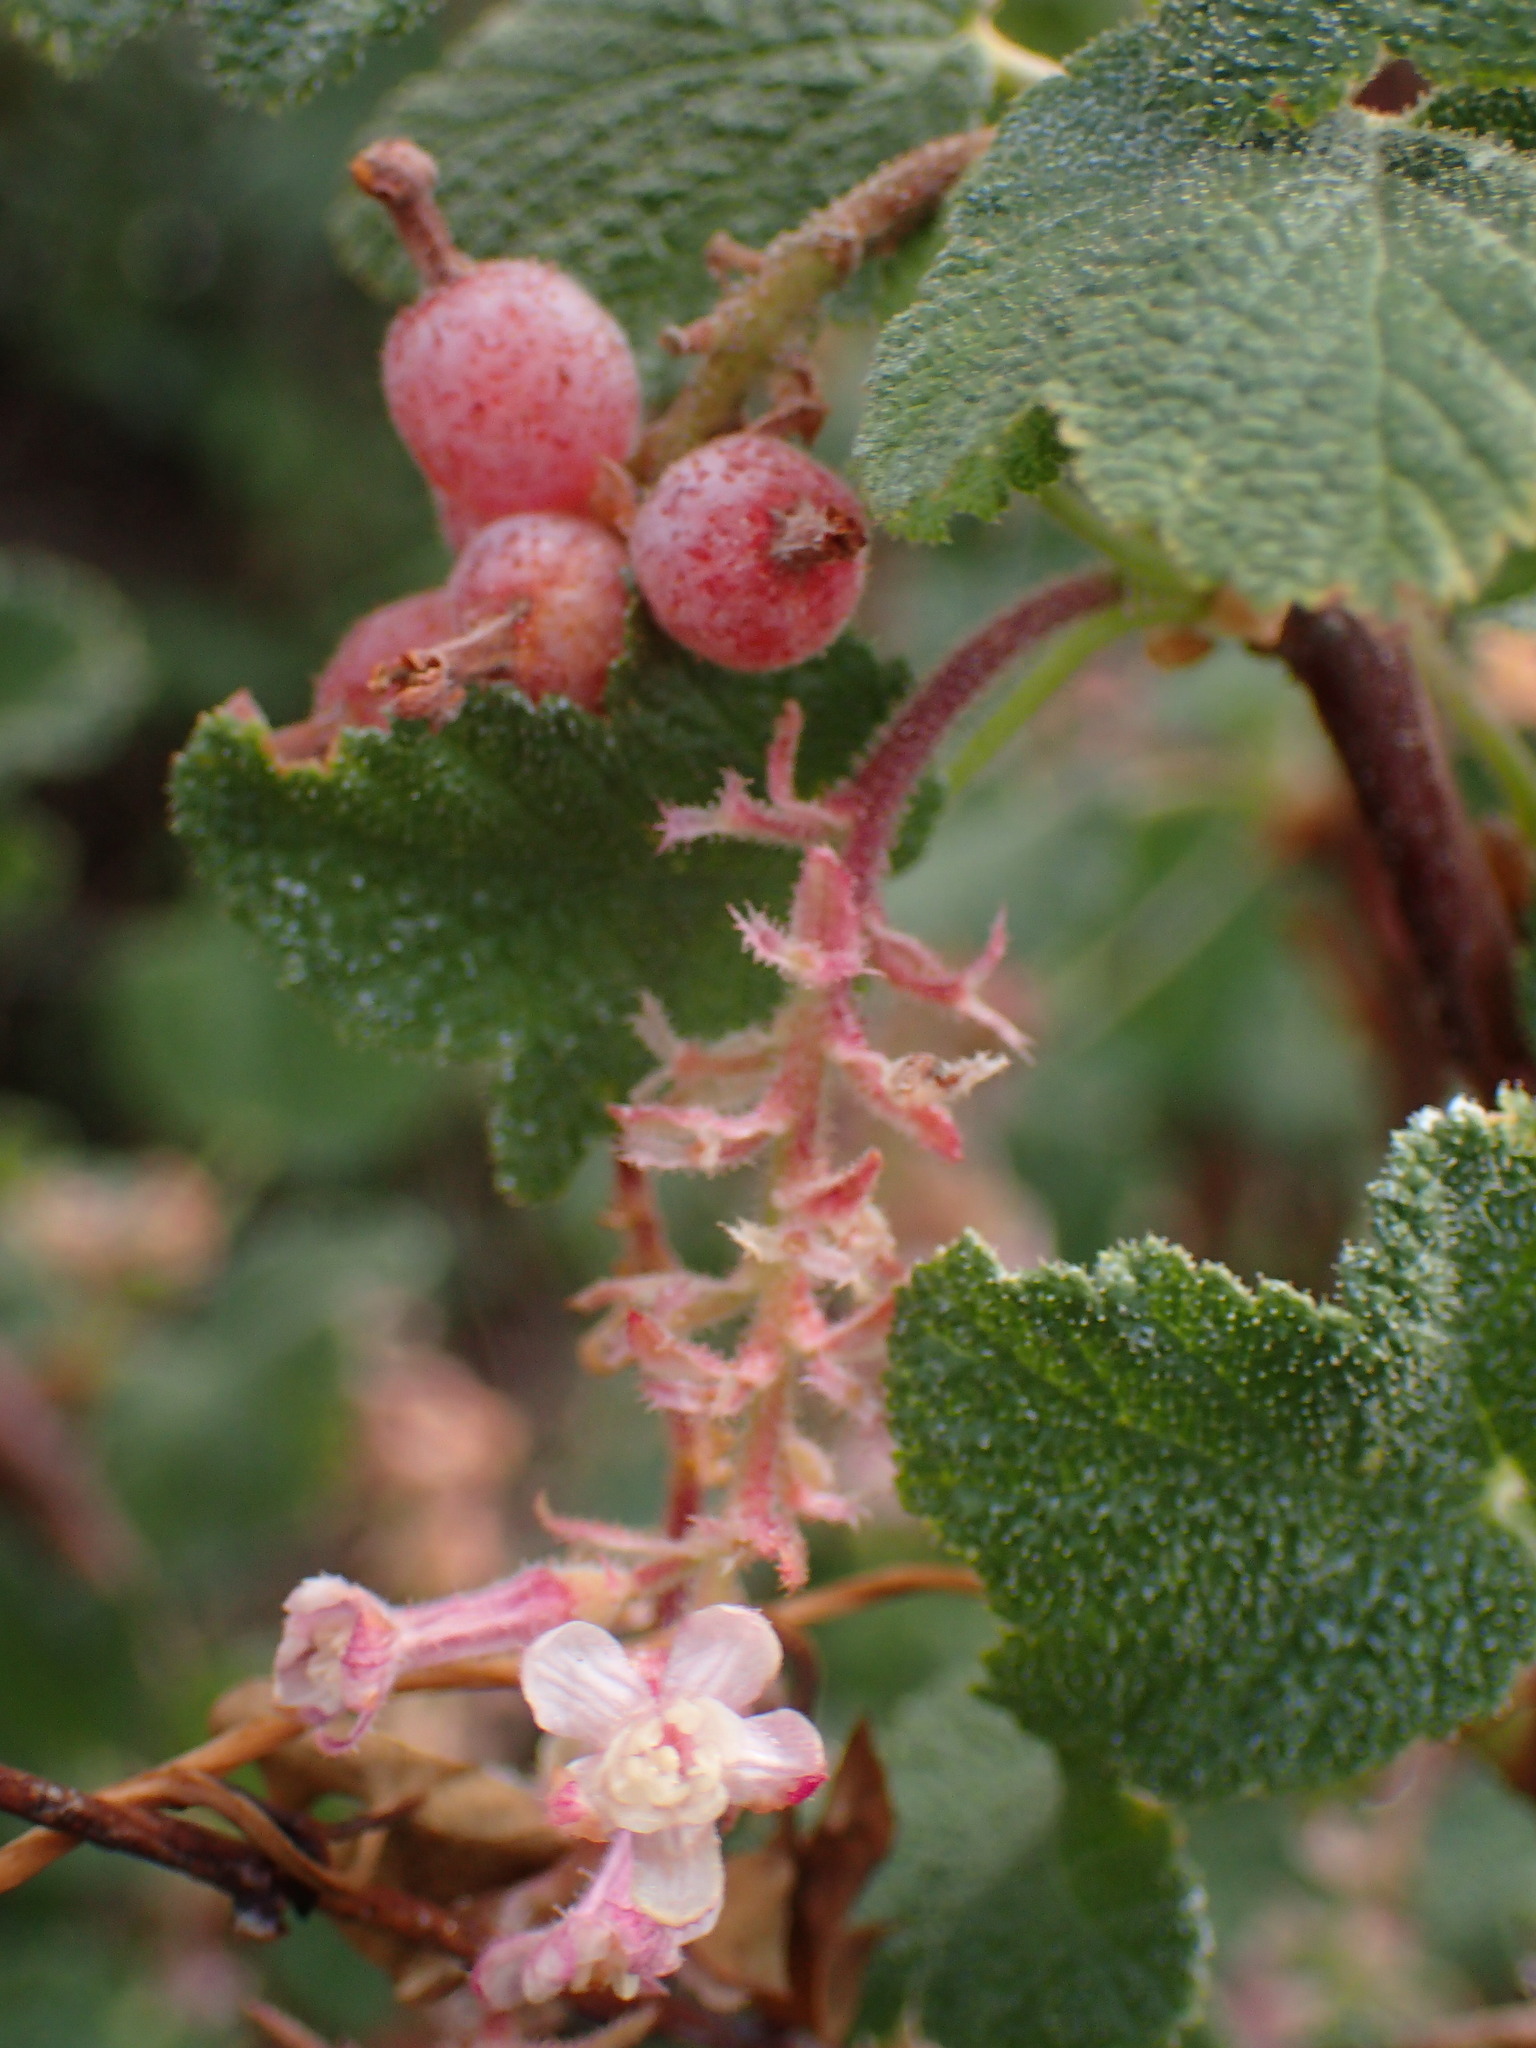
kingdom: Plantae
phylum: Tracheophyta
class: Magnoliopsida
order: Saxifragales
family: Grossulariaceae
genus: Ribes
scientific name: Ribes malvaceum
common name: Chaparral currant
